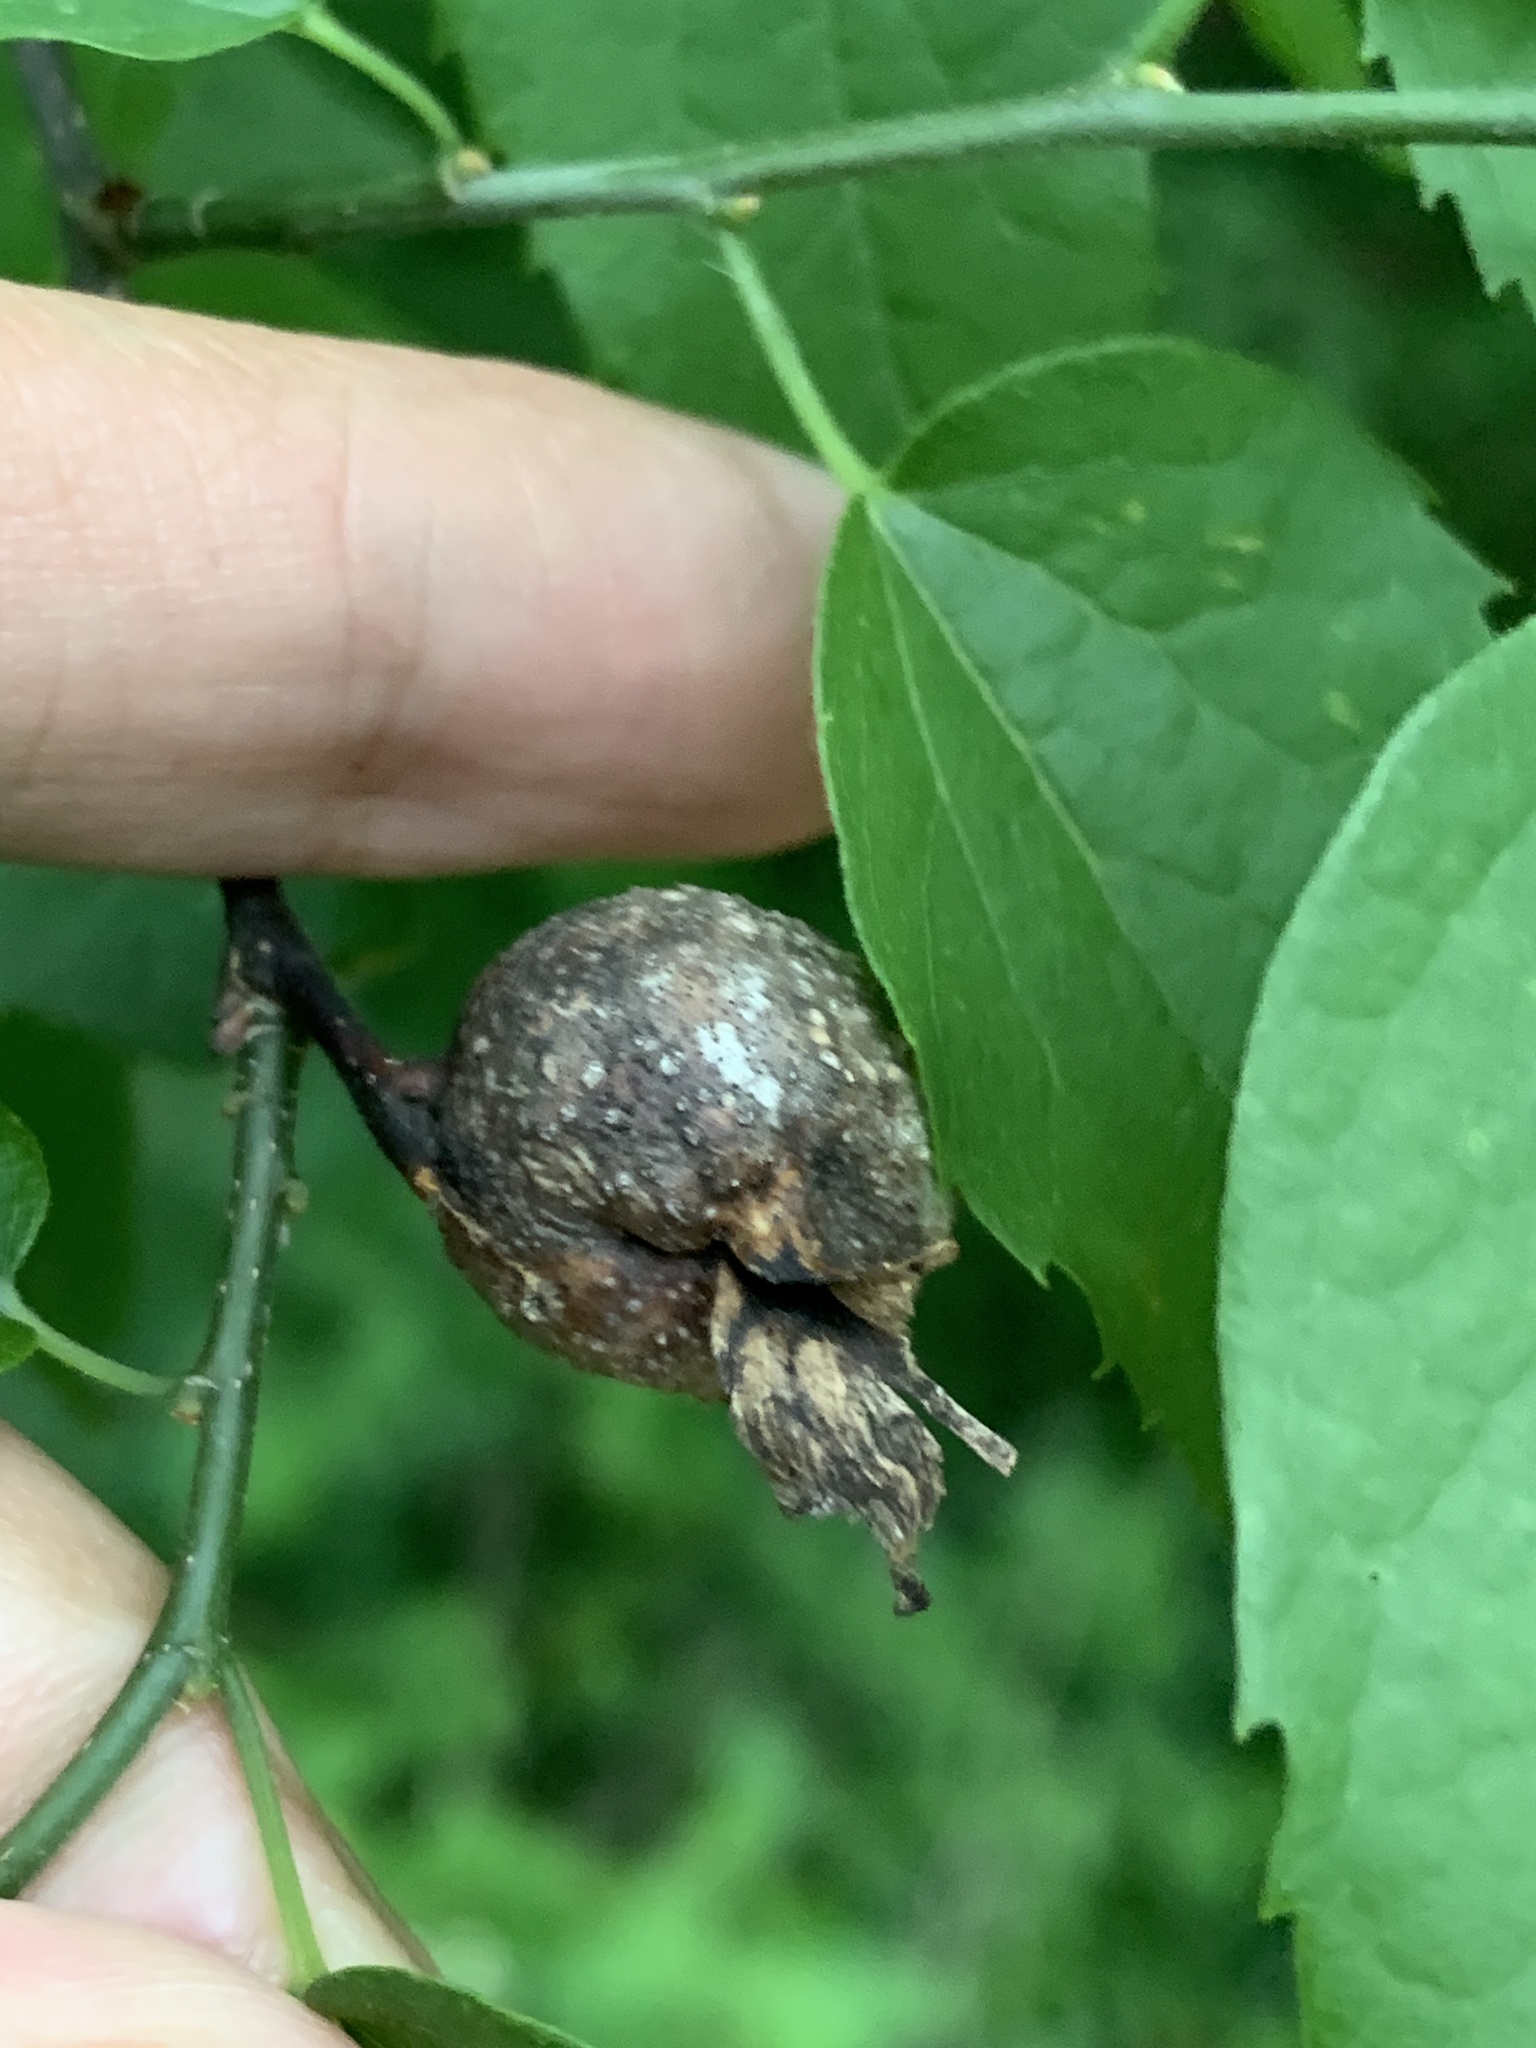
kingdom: Animalia
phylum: Arthropoda
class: Insecta
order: Hemiptera
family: Aphalaridae
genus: Pachypsylla
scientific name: Pachypsylla venusta
